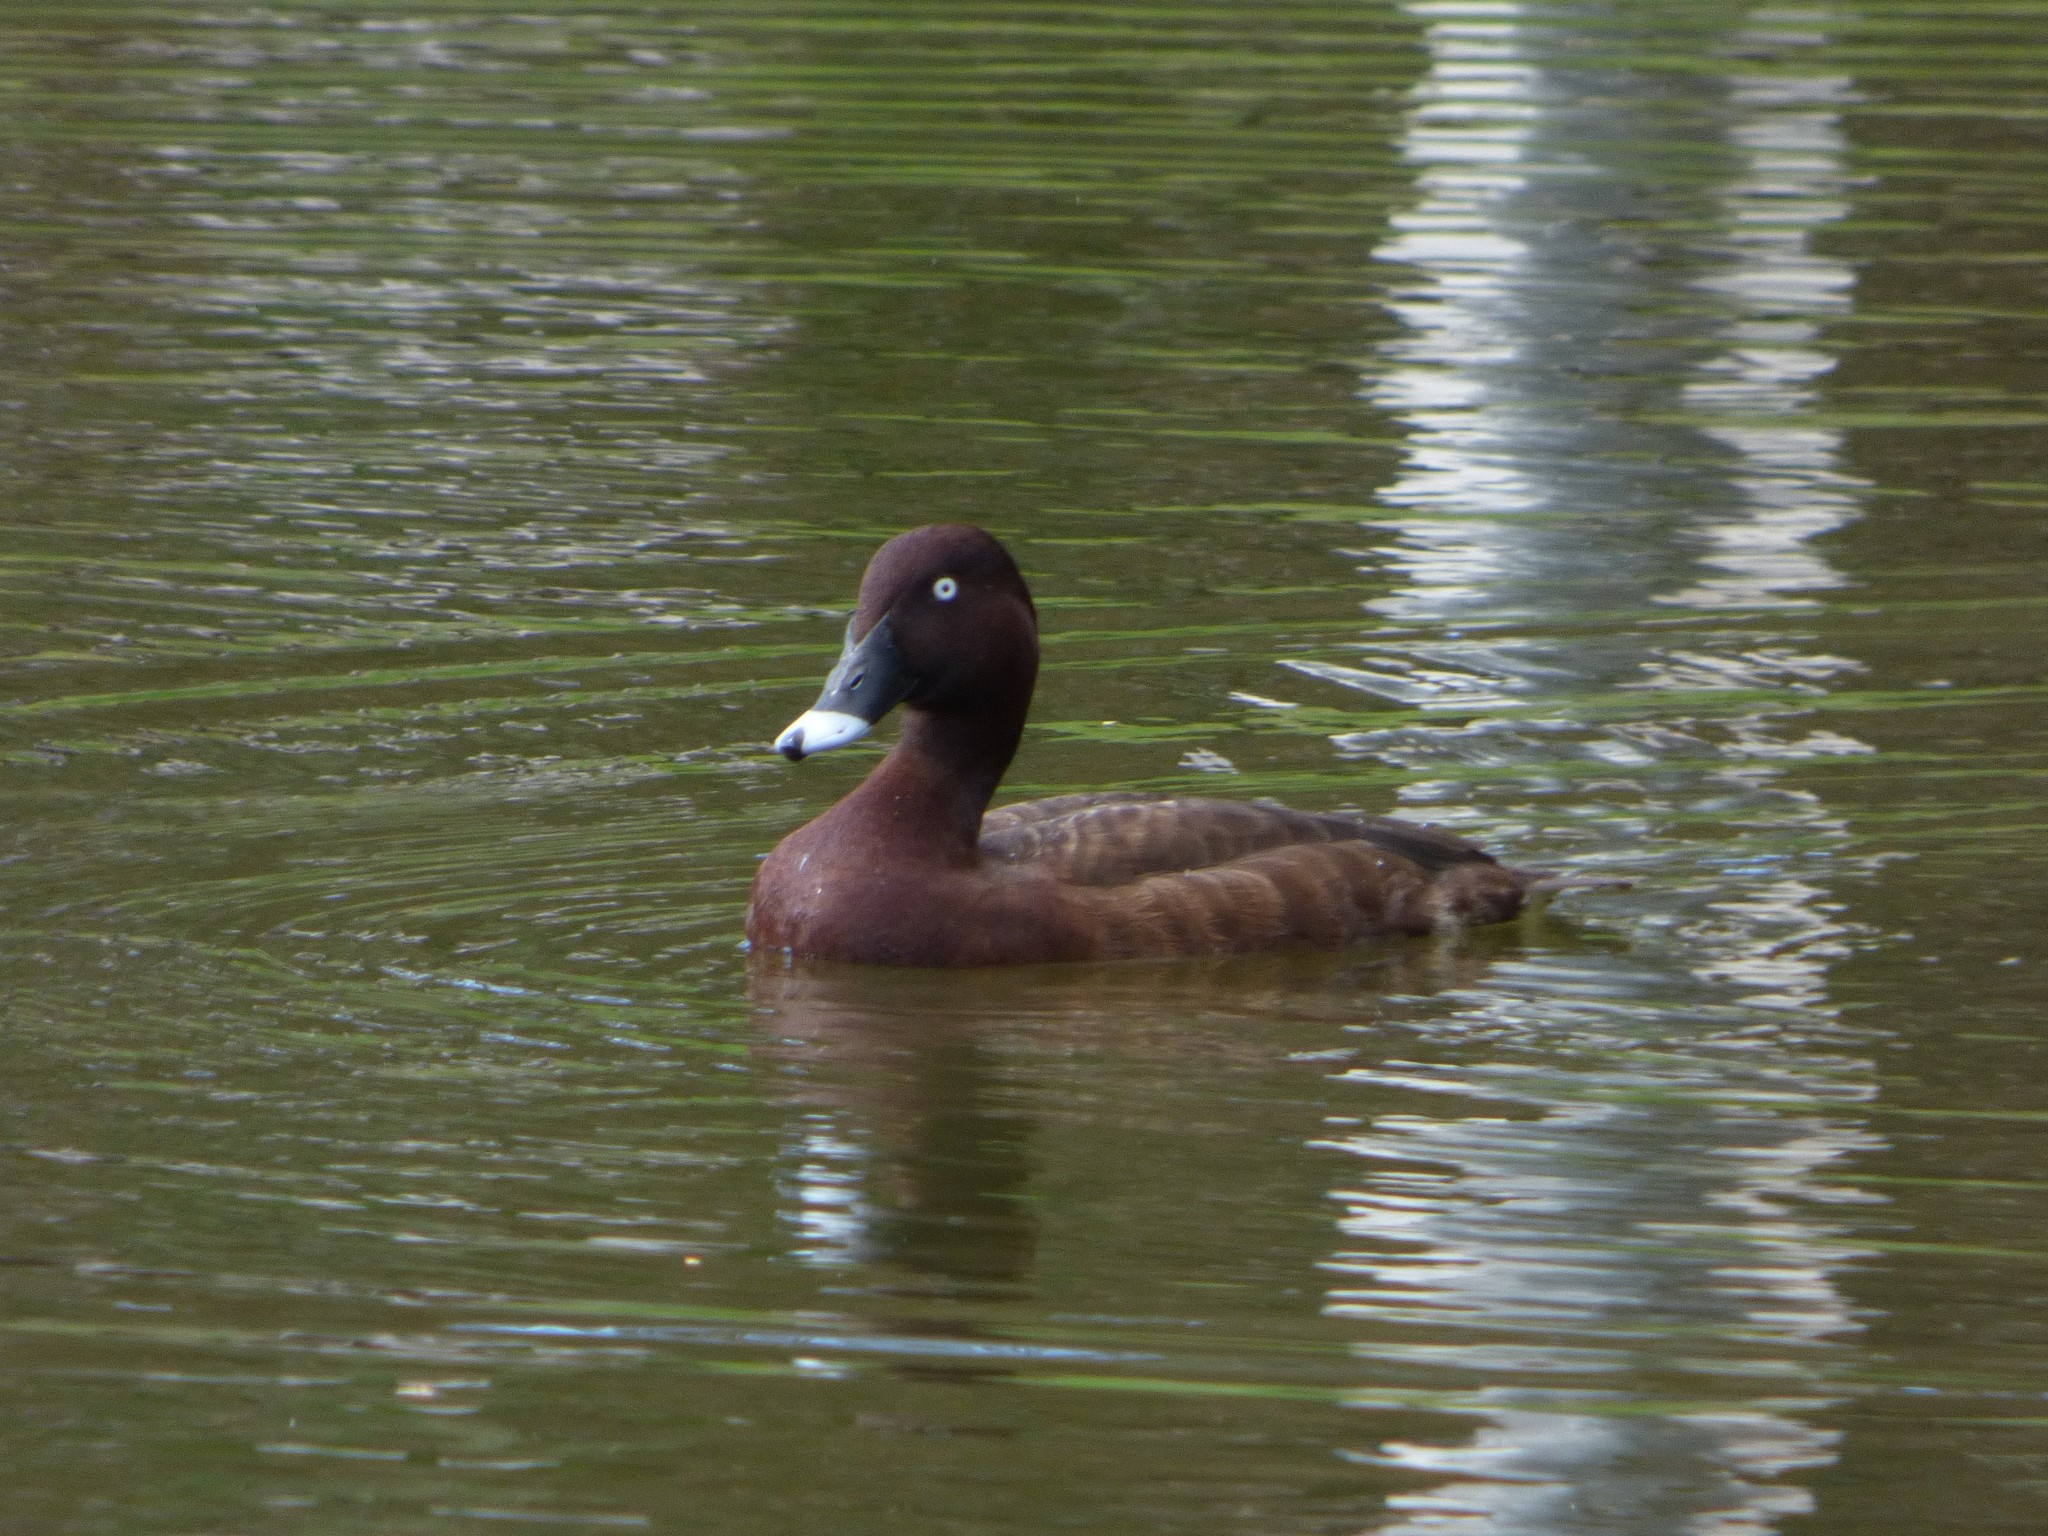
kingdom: Animalia
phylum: Chordata
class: Aves
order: Anseriformes
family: Anatidae
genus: Aythya
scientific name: Aythya australis
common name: Hardhead
